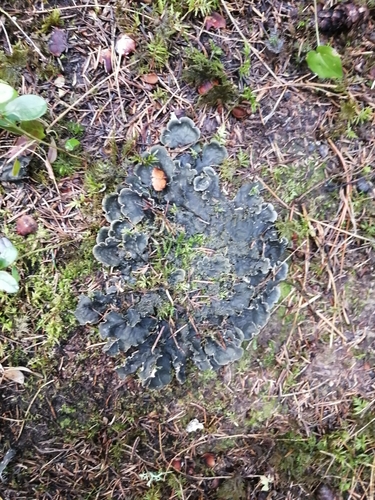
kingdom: Fungi
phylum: Ascomycota
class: Lecanoromycetes
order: Peltigerales
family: Peltigeraceae
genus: Peltigera
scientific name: Peltigera
